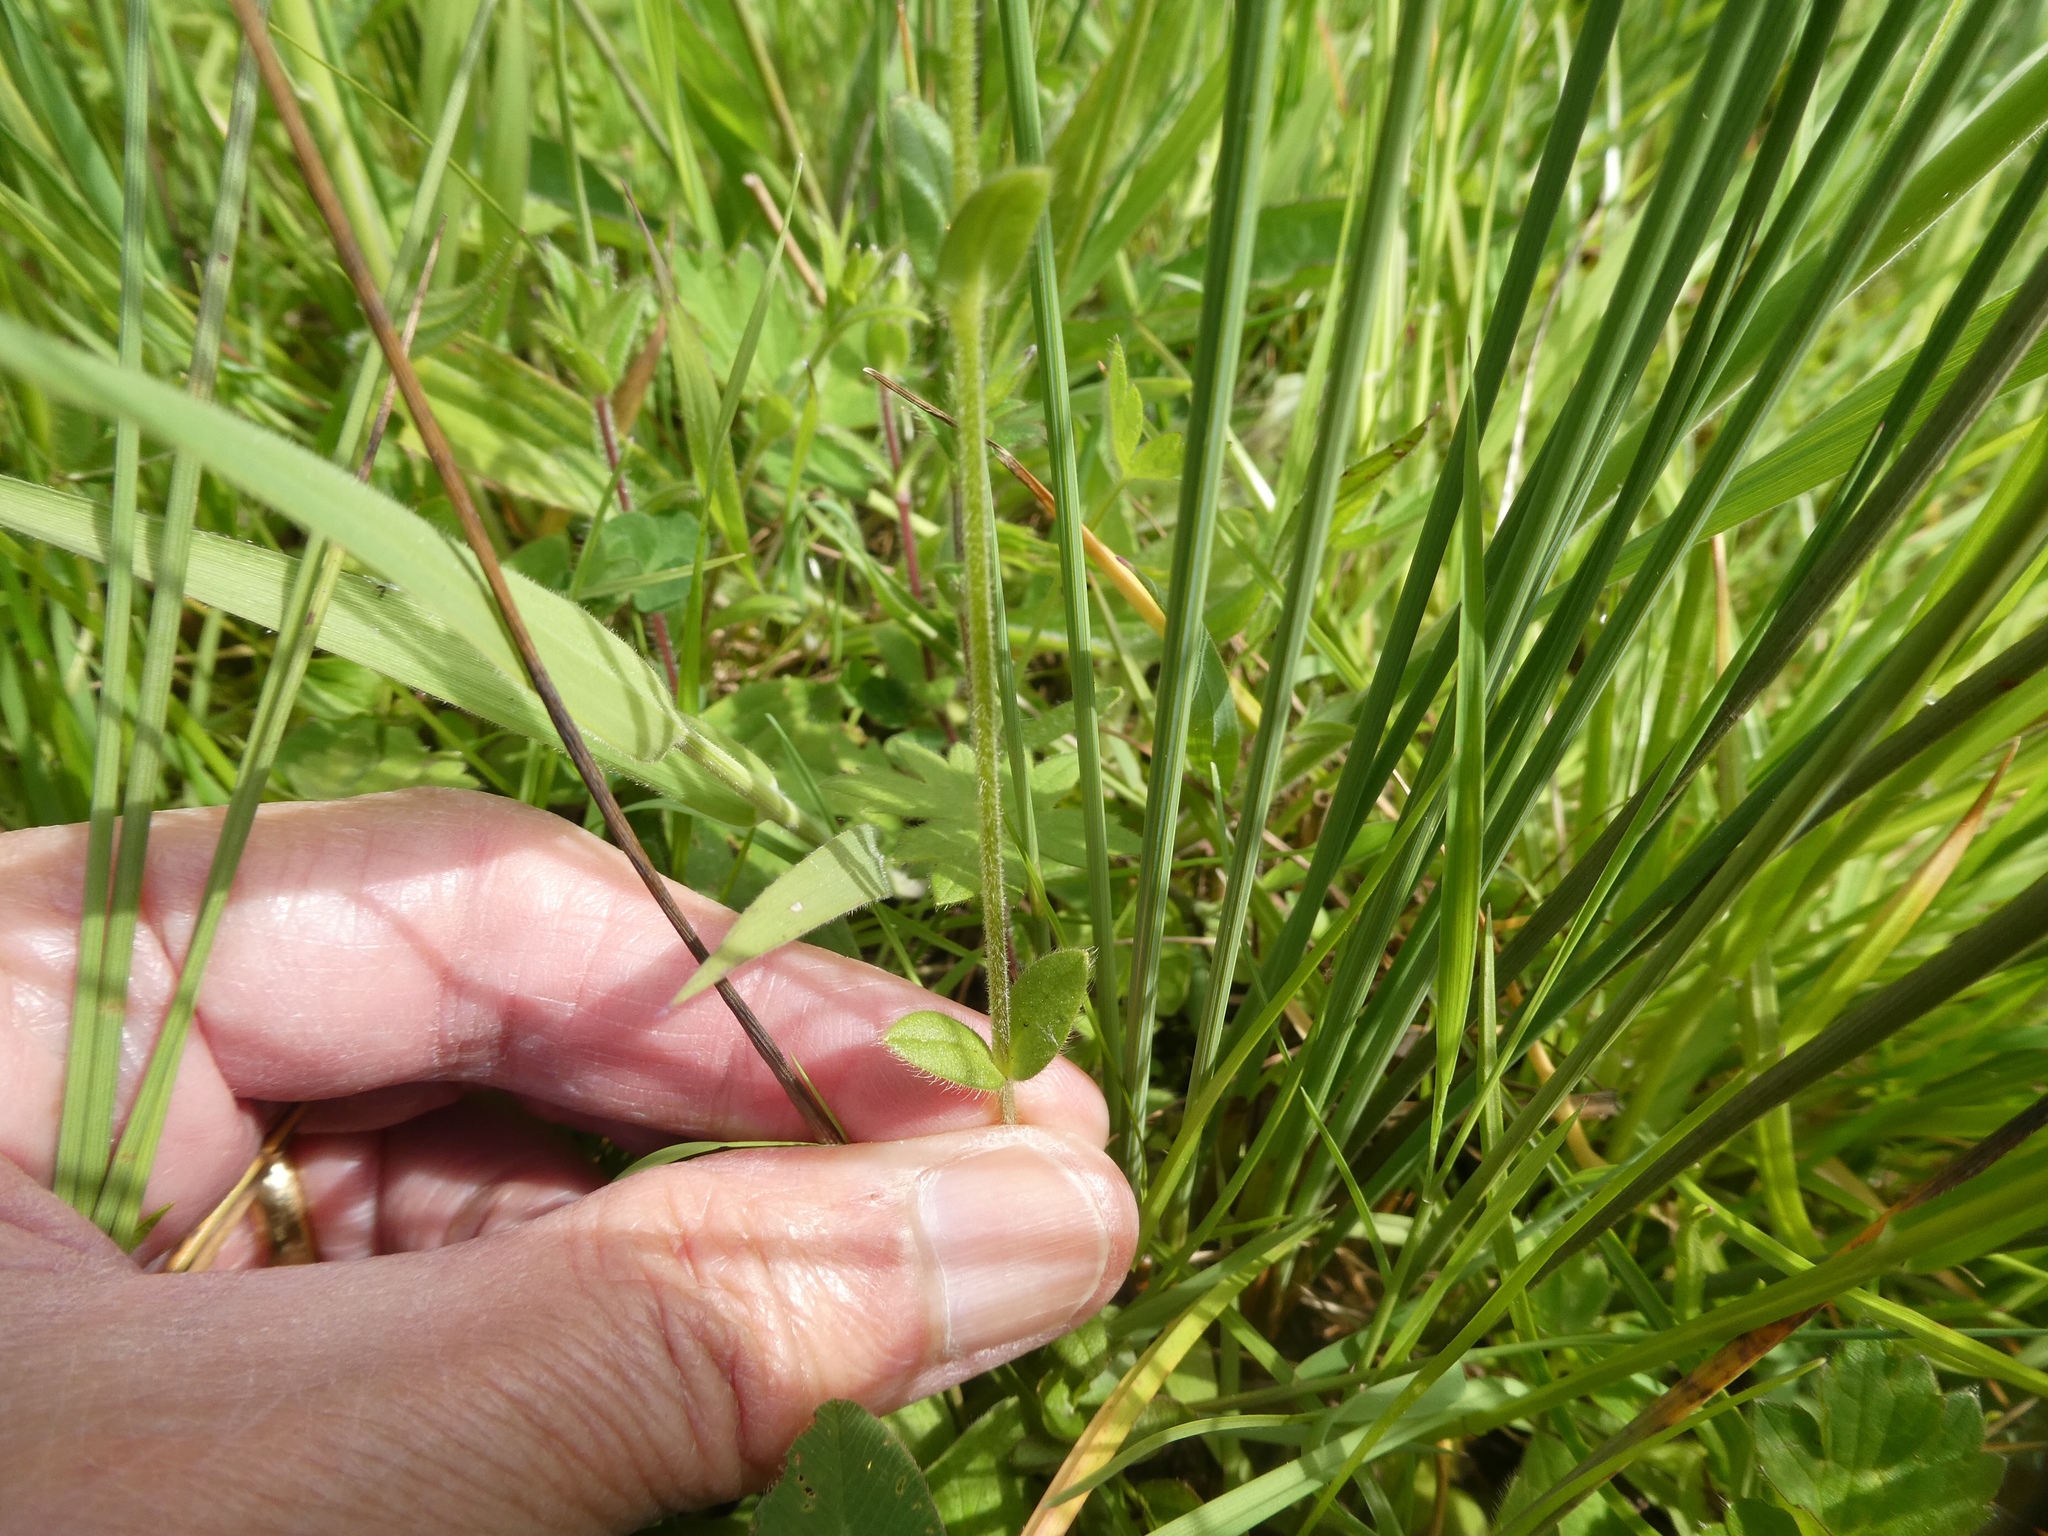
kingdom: Plantae
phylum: Tracheophyta
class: Magnoliopsida
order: Caryophyllales
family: Caryophyllaceae
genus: Cerastium
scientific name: Cerastium fontanum
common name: Common mouse-ear
